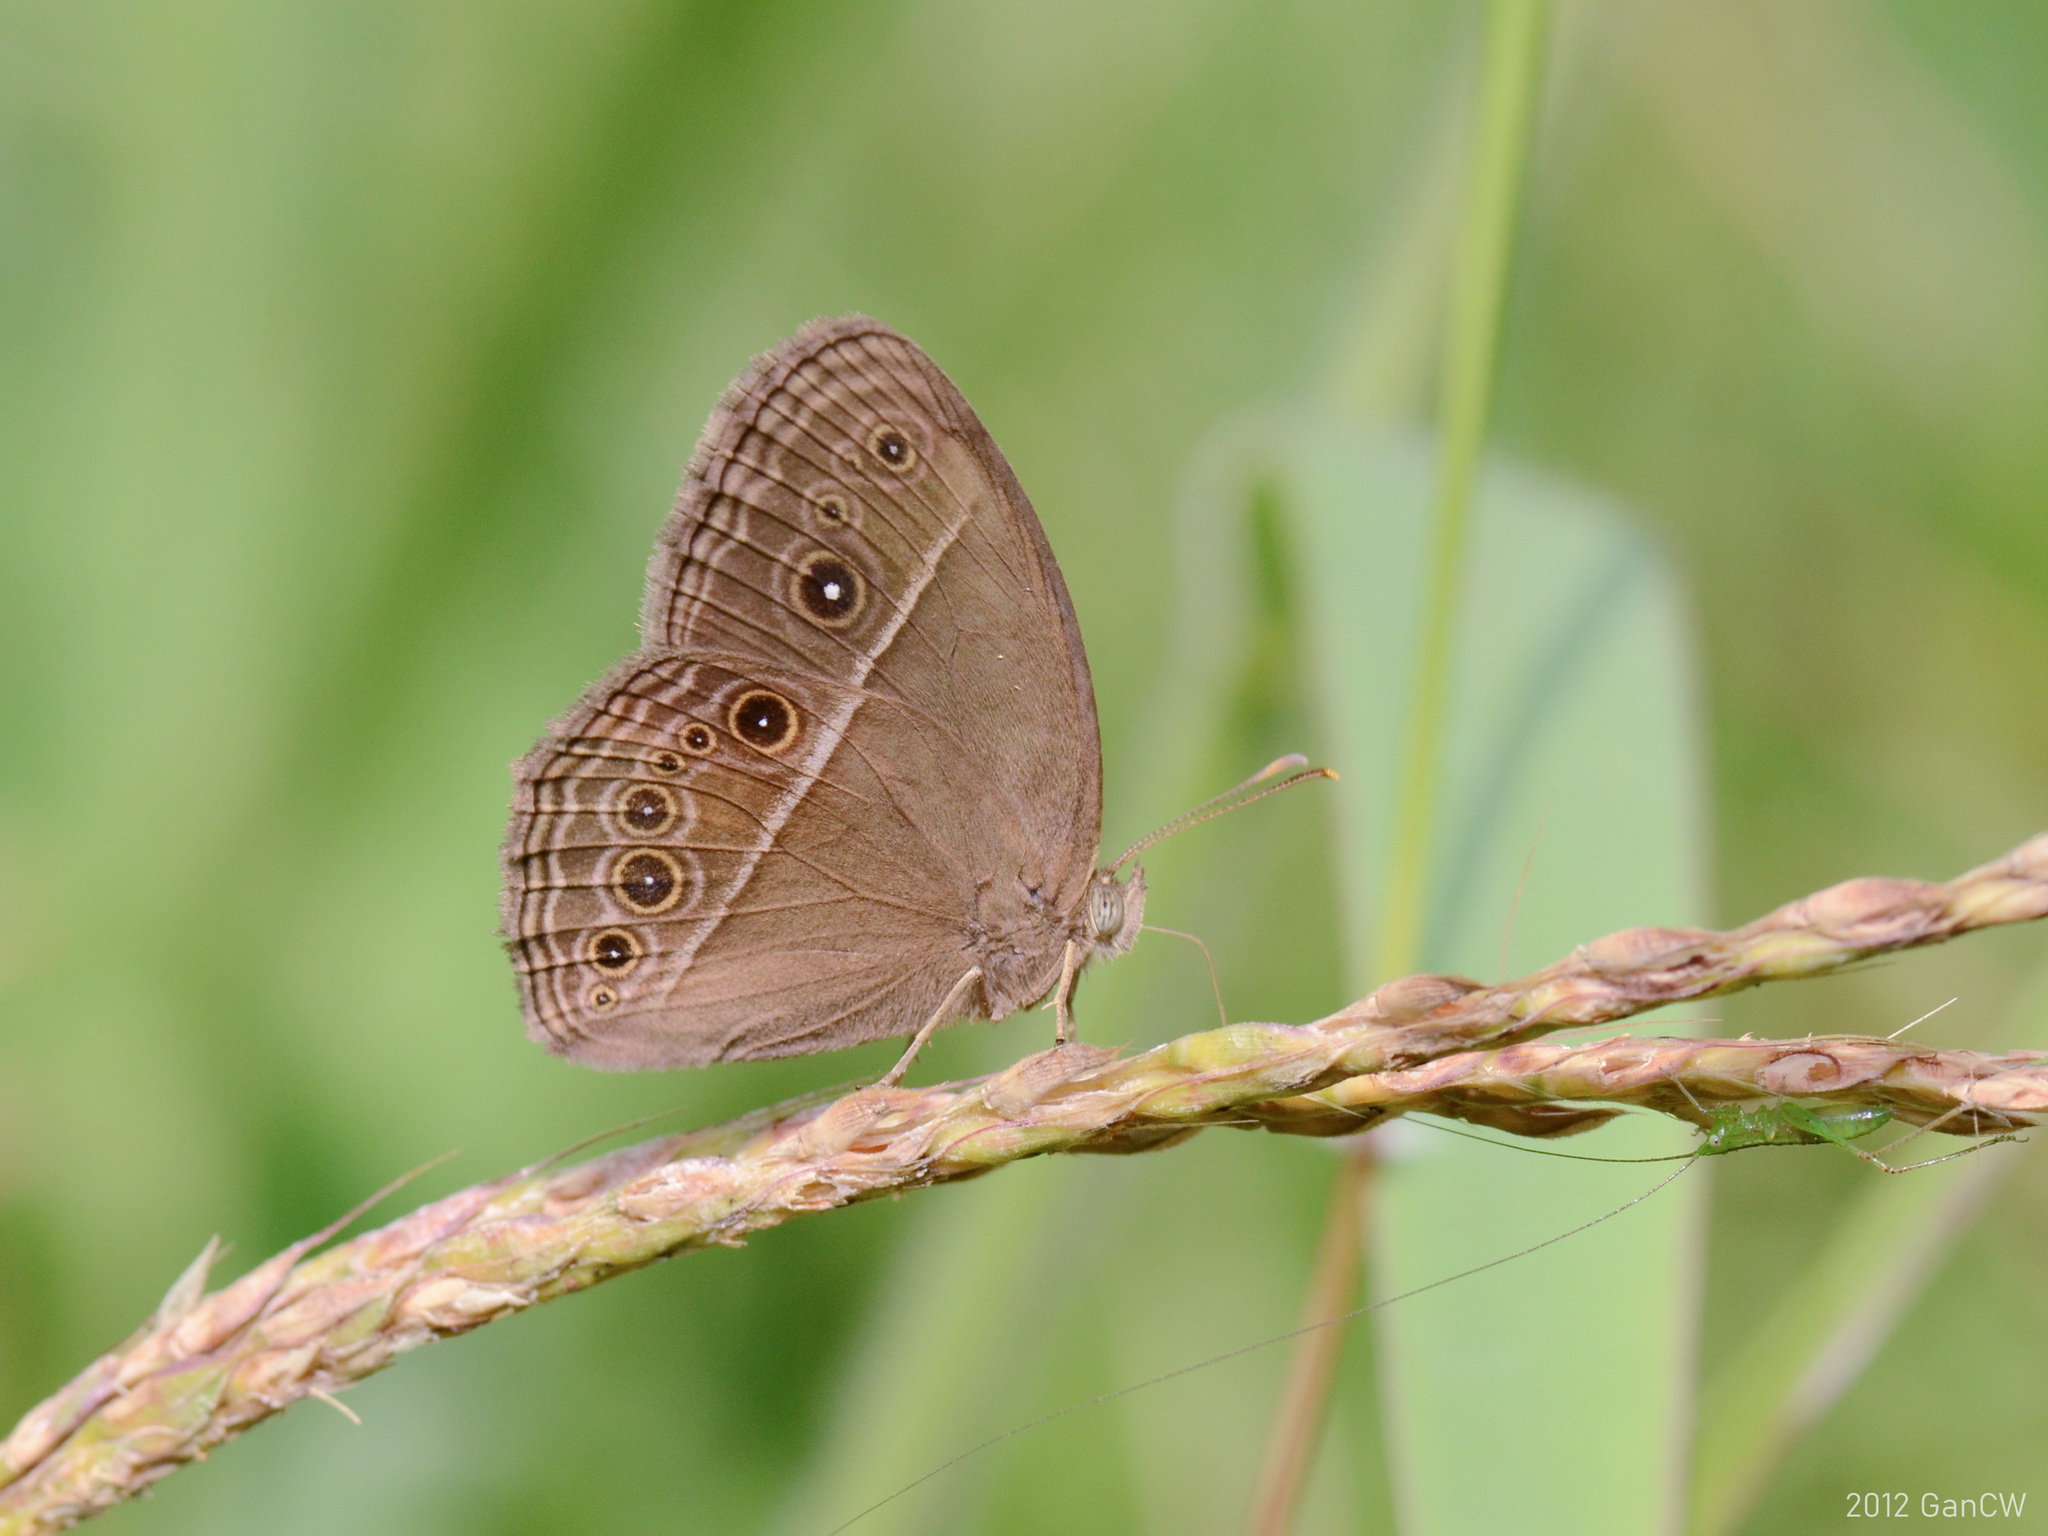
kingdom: Animalia
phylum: Arthropoda
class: Insecta
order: Lepidoptera
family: Nymphalidae
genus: Mycalesis
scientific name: Mycalesis perseus
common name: Dingy bushbrown
